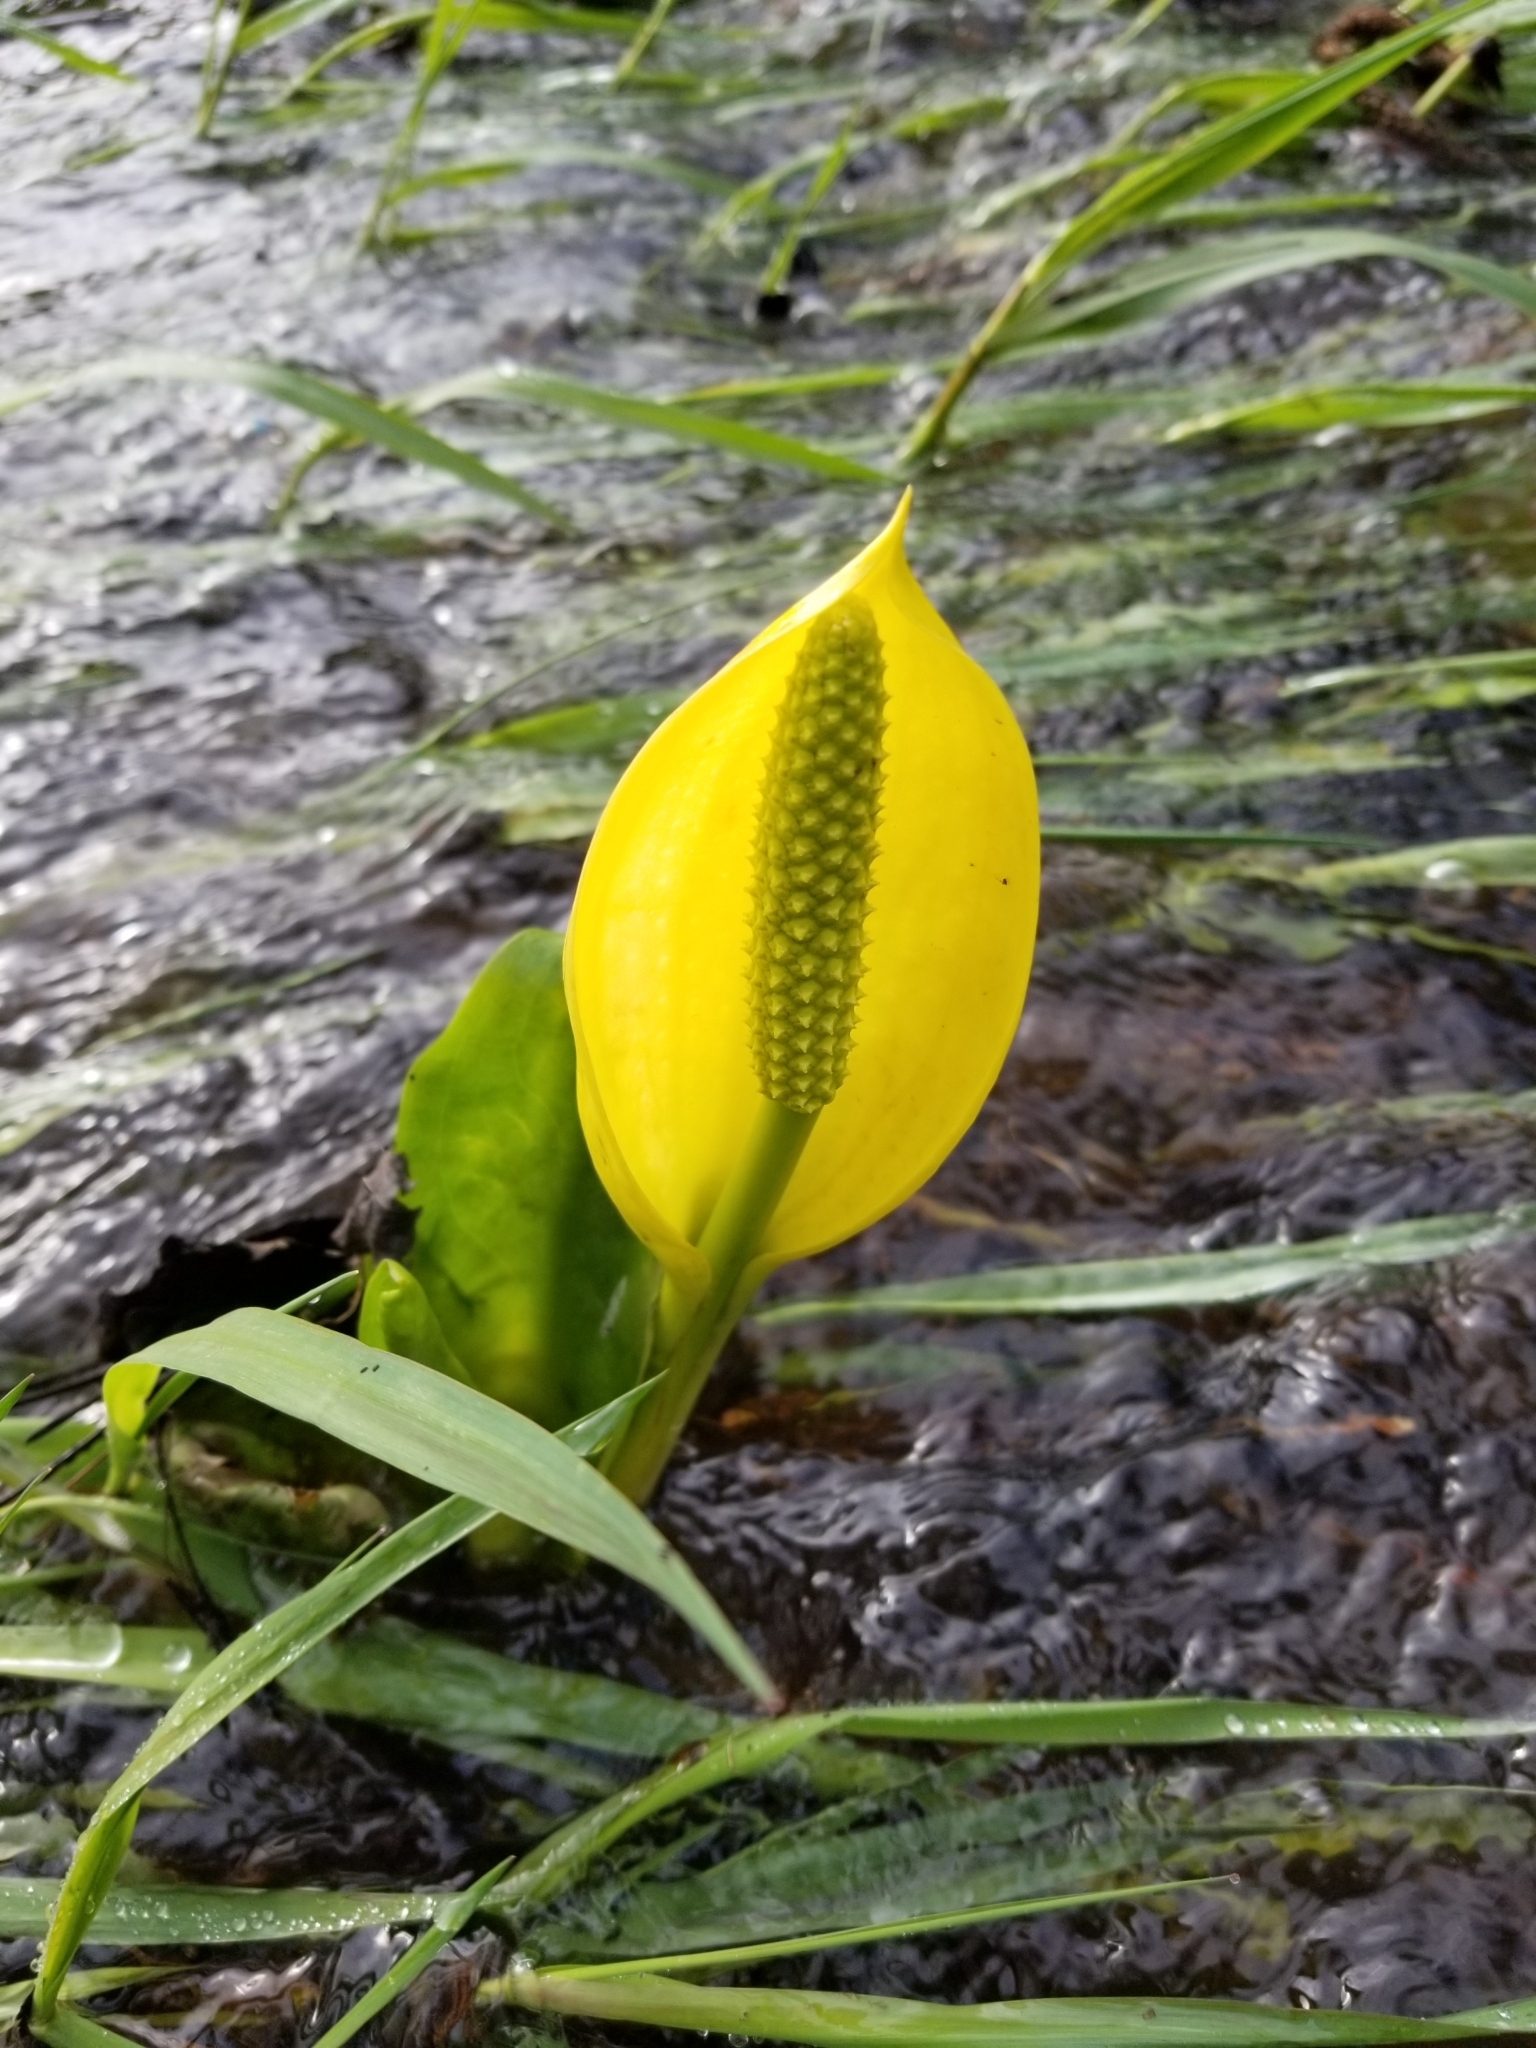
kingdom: Plantae
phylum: Tracheophyta
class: Liliopsida
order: Alismatales
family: Araceae
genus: Lysichiton
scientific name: Lysichiton americanus
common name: American skunk cabbage
